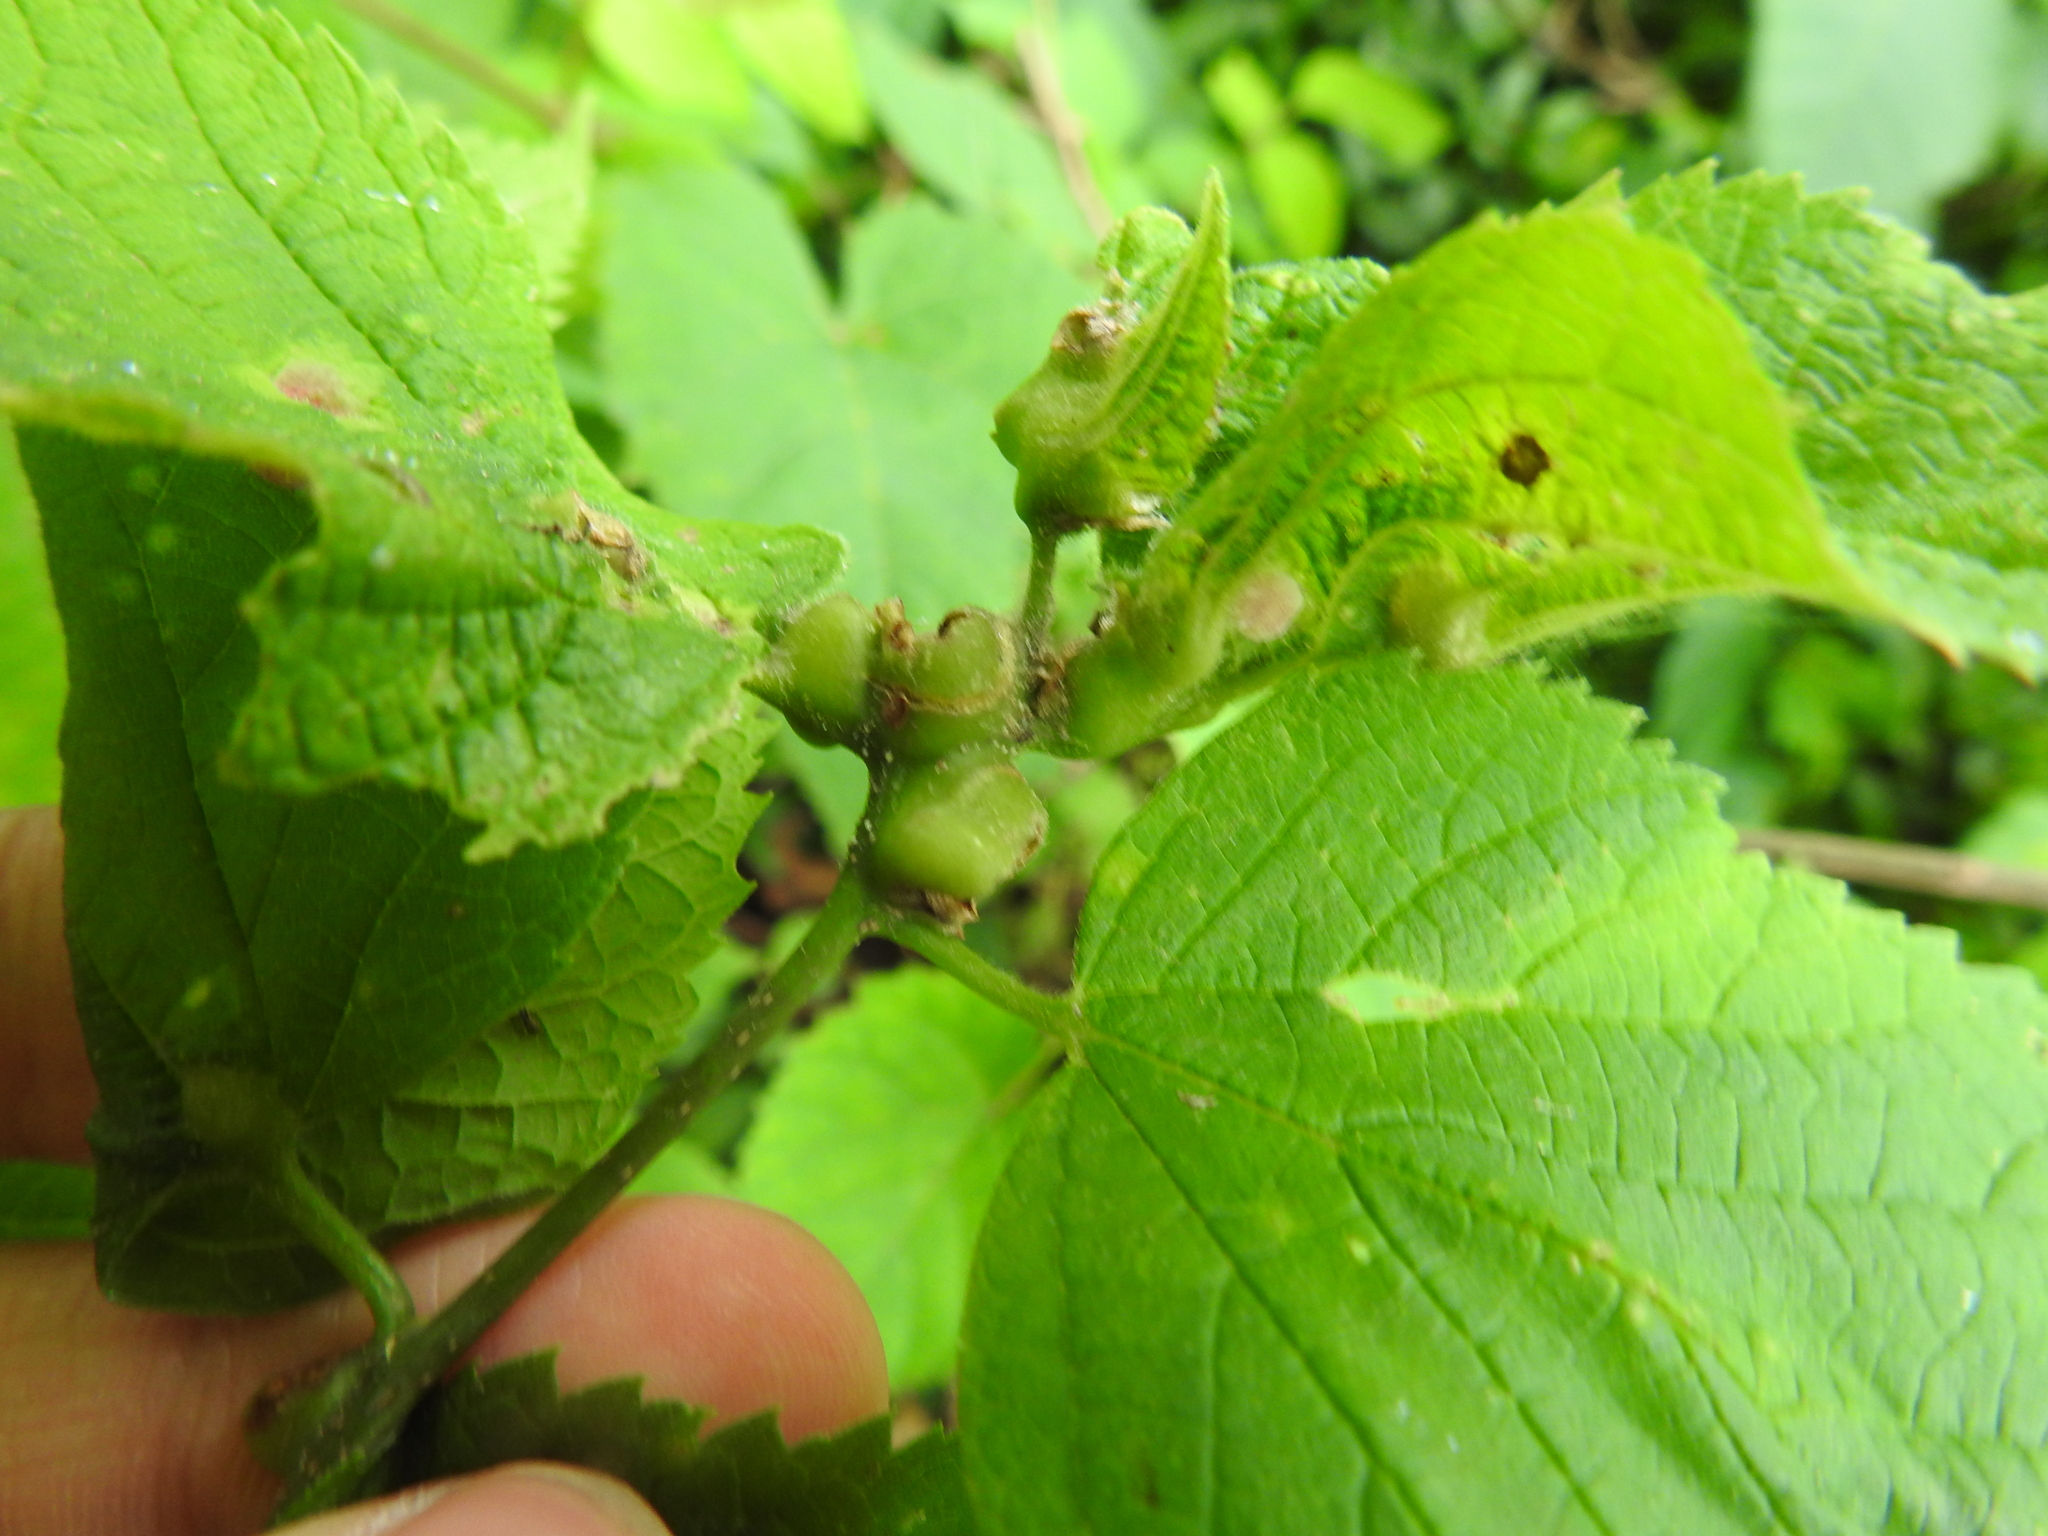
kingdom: Animalia
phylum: Arthropoda
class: Insecta
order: Diptera
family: Cecidomyiidae
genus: Celticecis
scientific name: Celticecis expulsa
